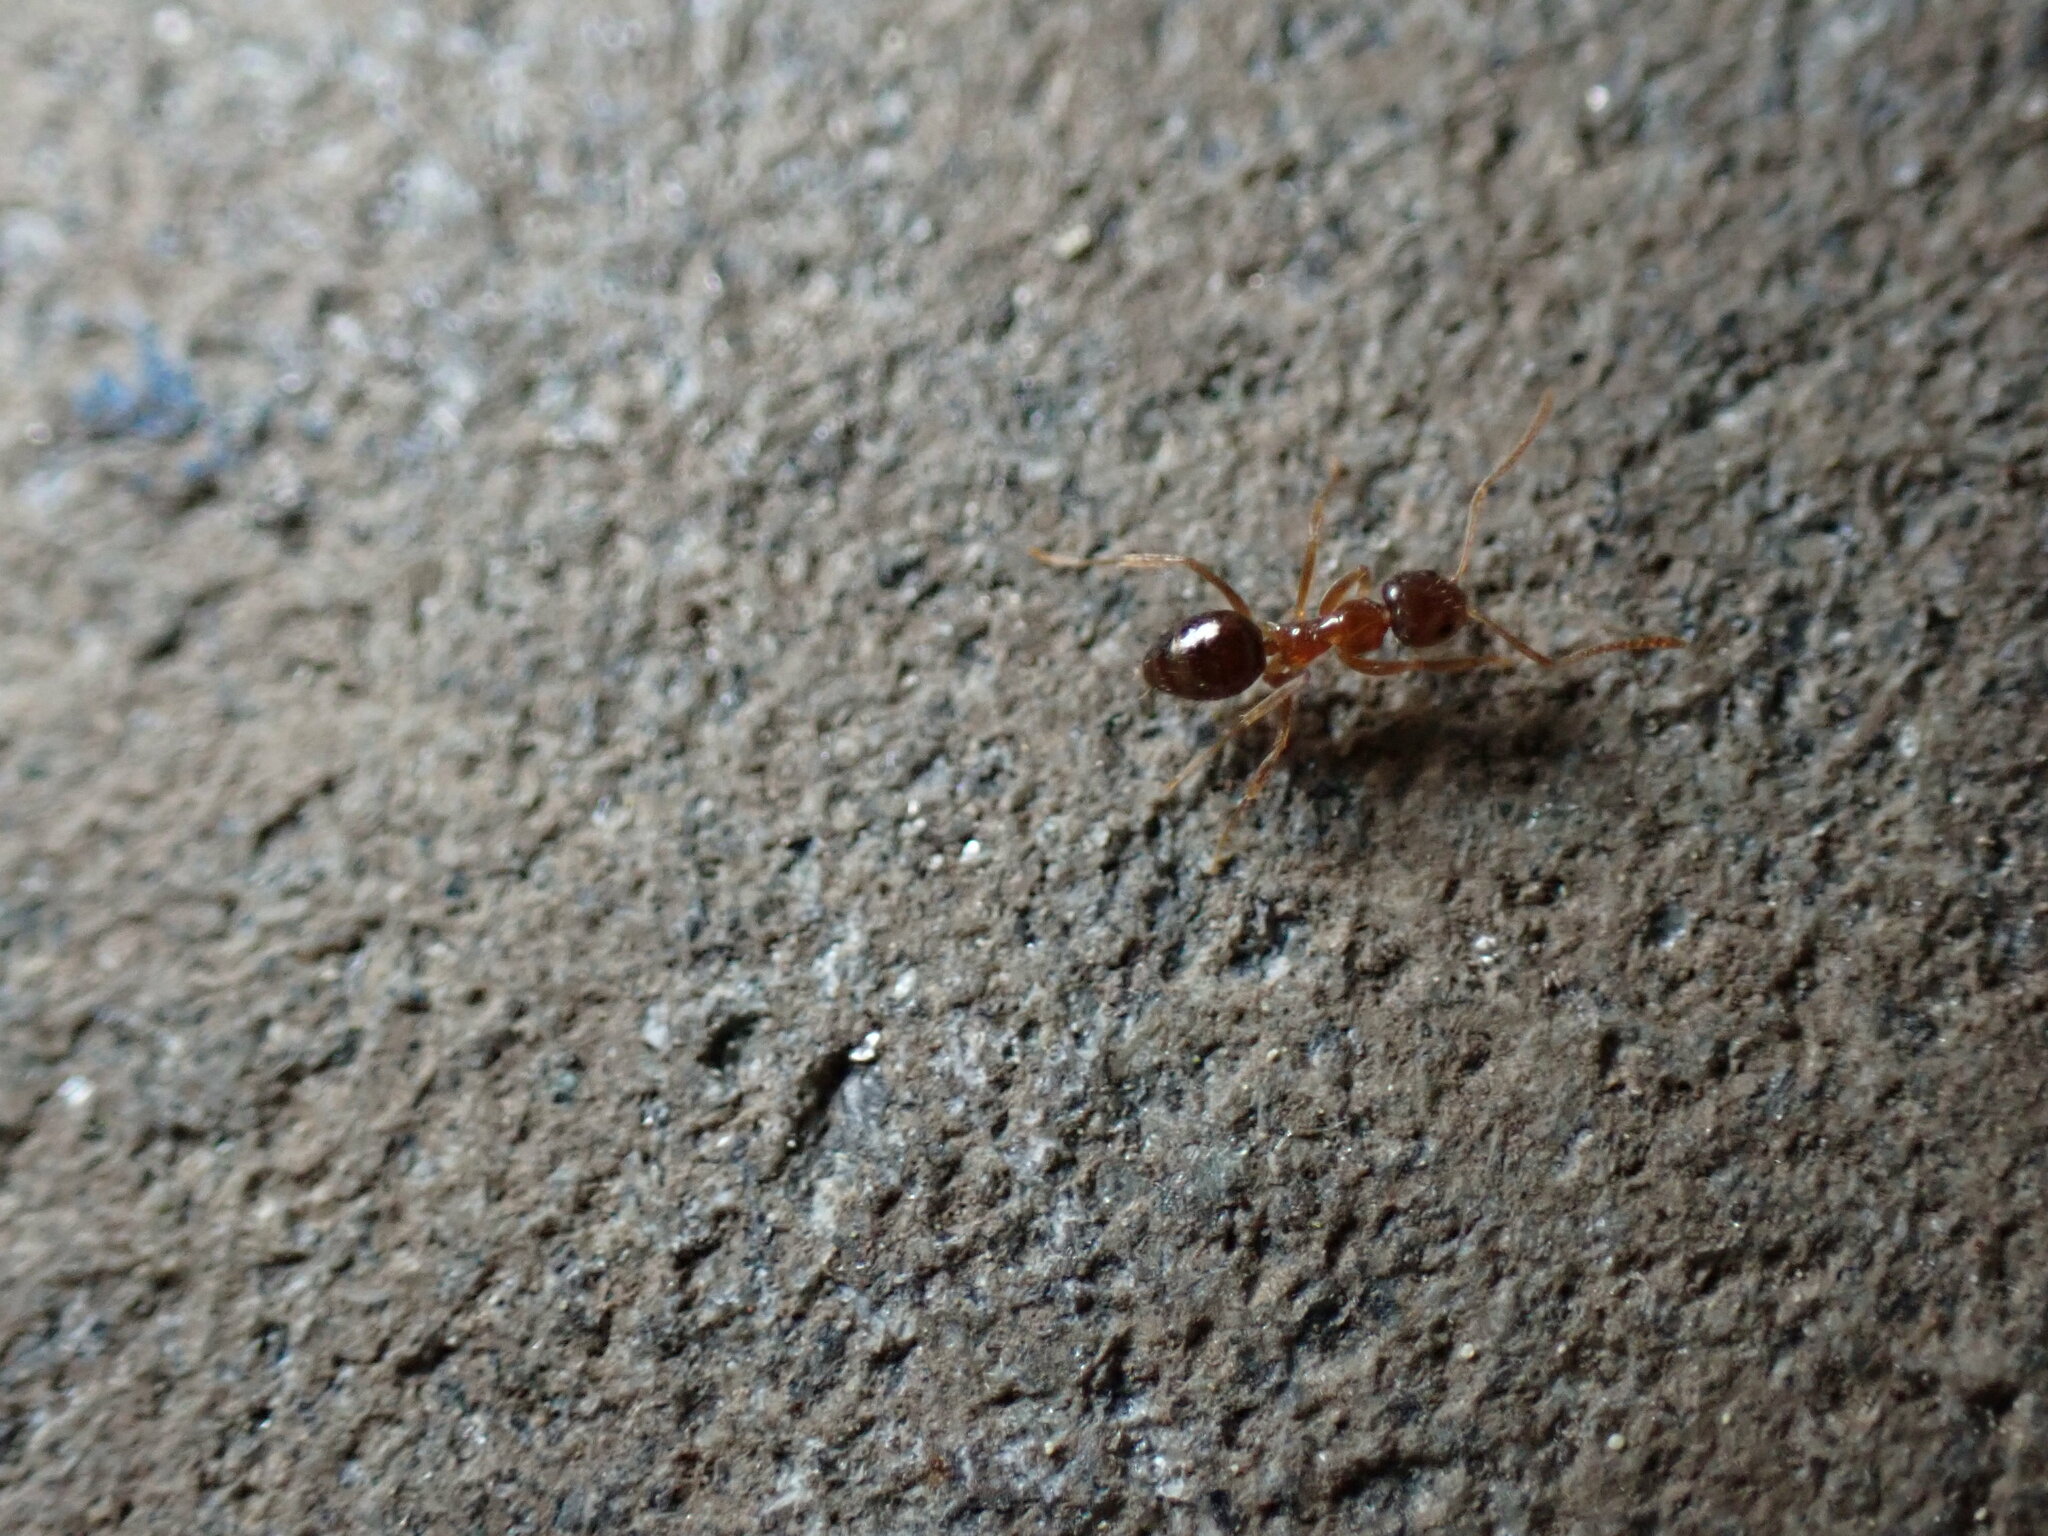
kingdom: Animalia
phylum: Arthropoda
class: Insecta
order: Hymenoptera
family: Formicidae
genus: Paratrechina
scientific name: Paratrechina flavipes
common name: Eastern asian formicine ant
